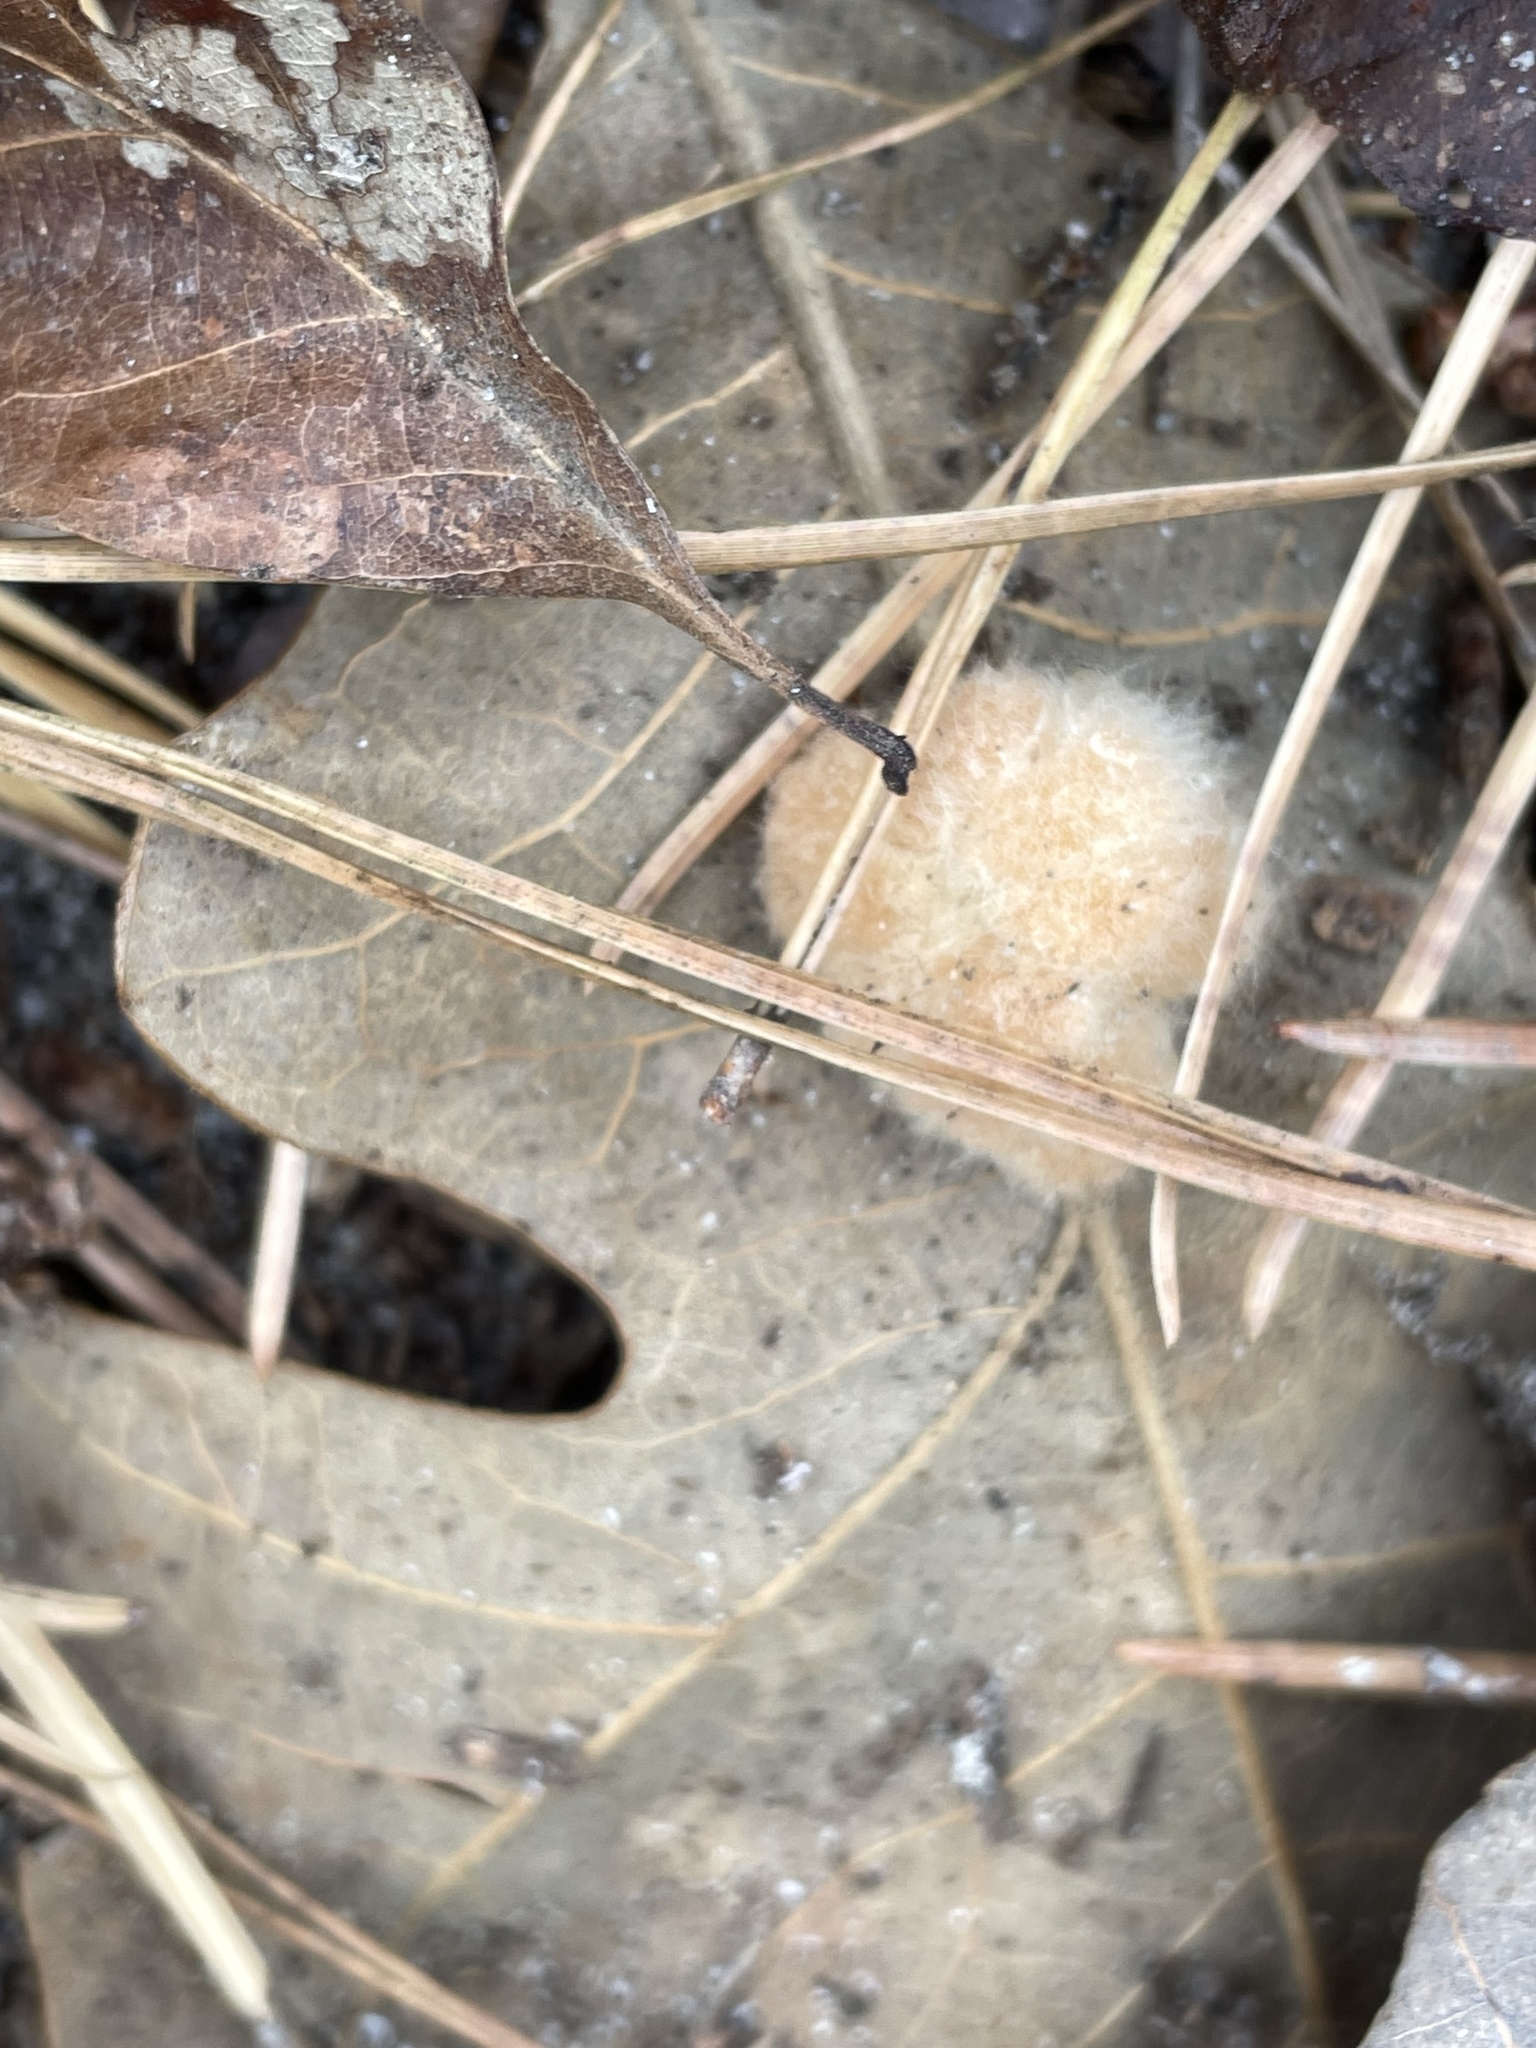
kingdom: Animalia
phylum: Arthropoda
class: Insecta
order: Hymenoptera
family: Cynipidae
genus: Andricus
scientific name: Andricus Druon pattoni
